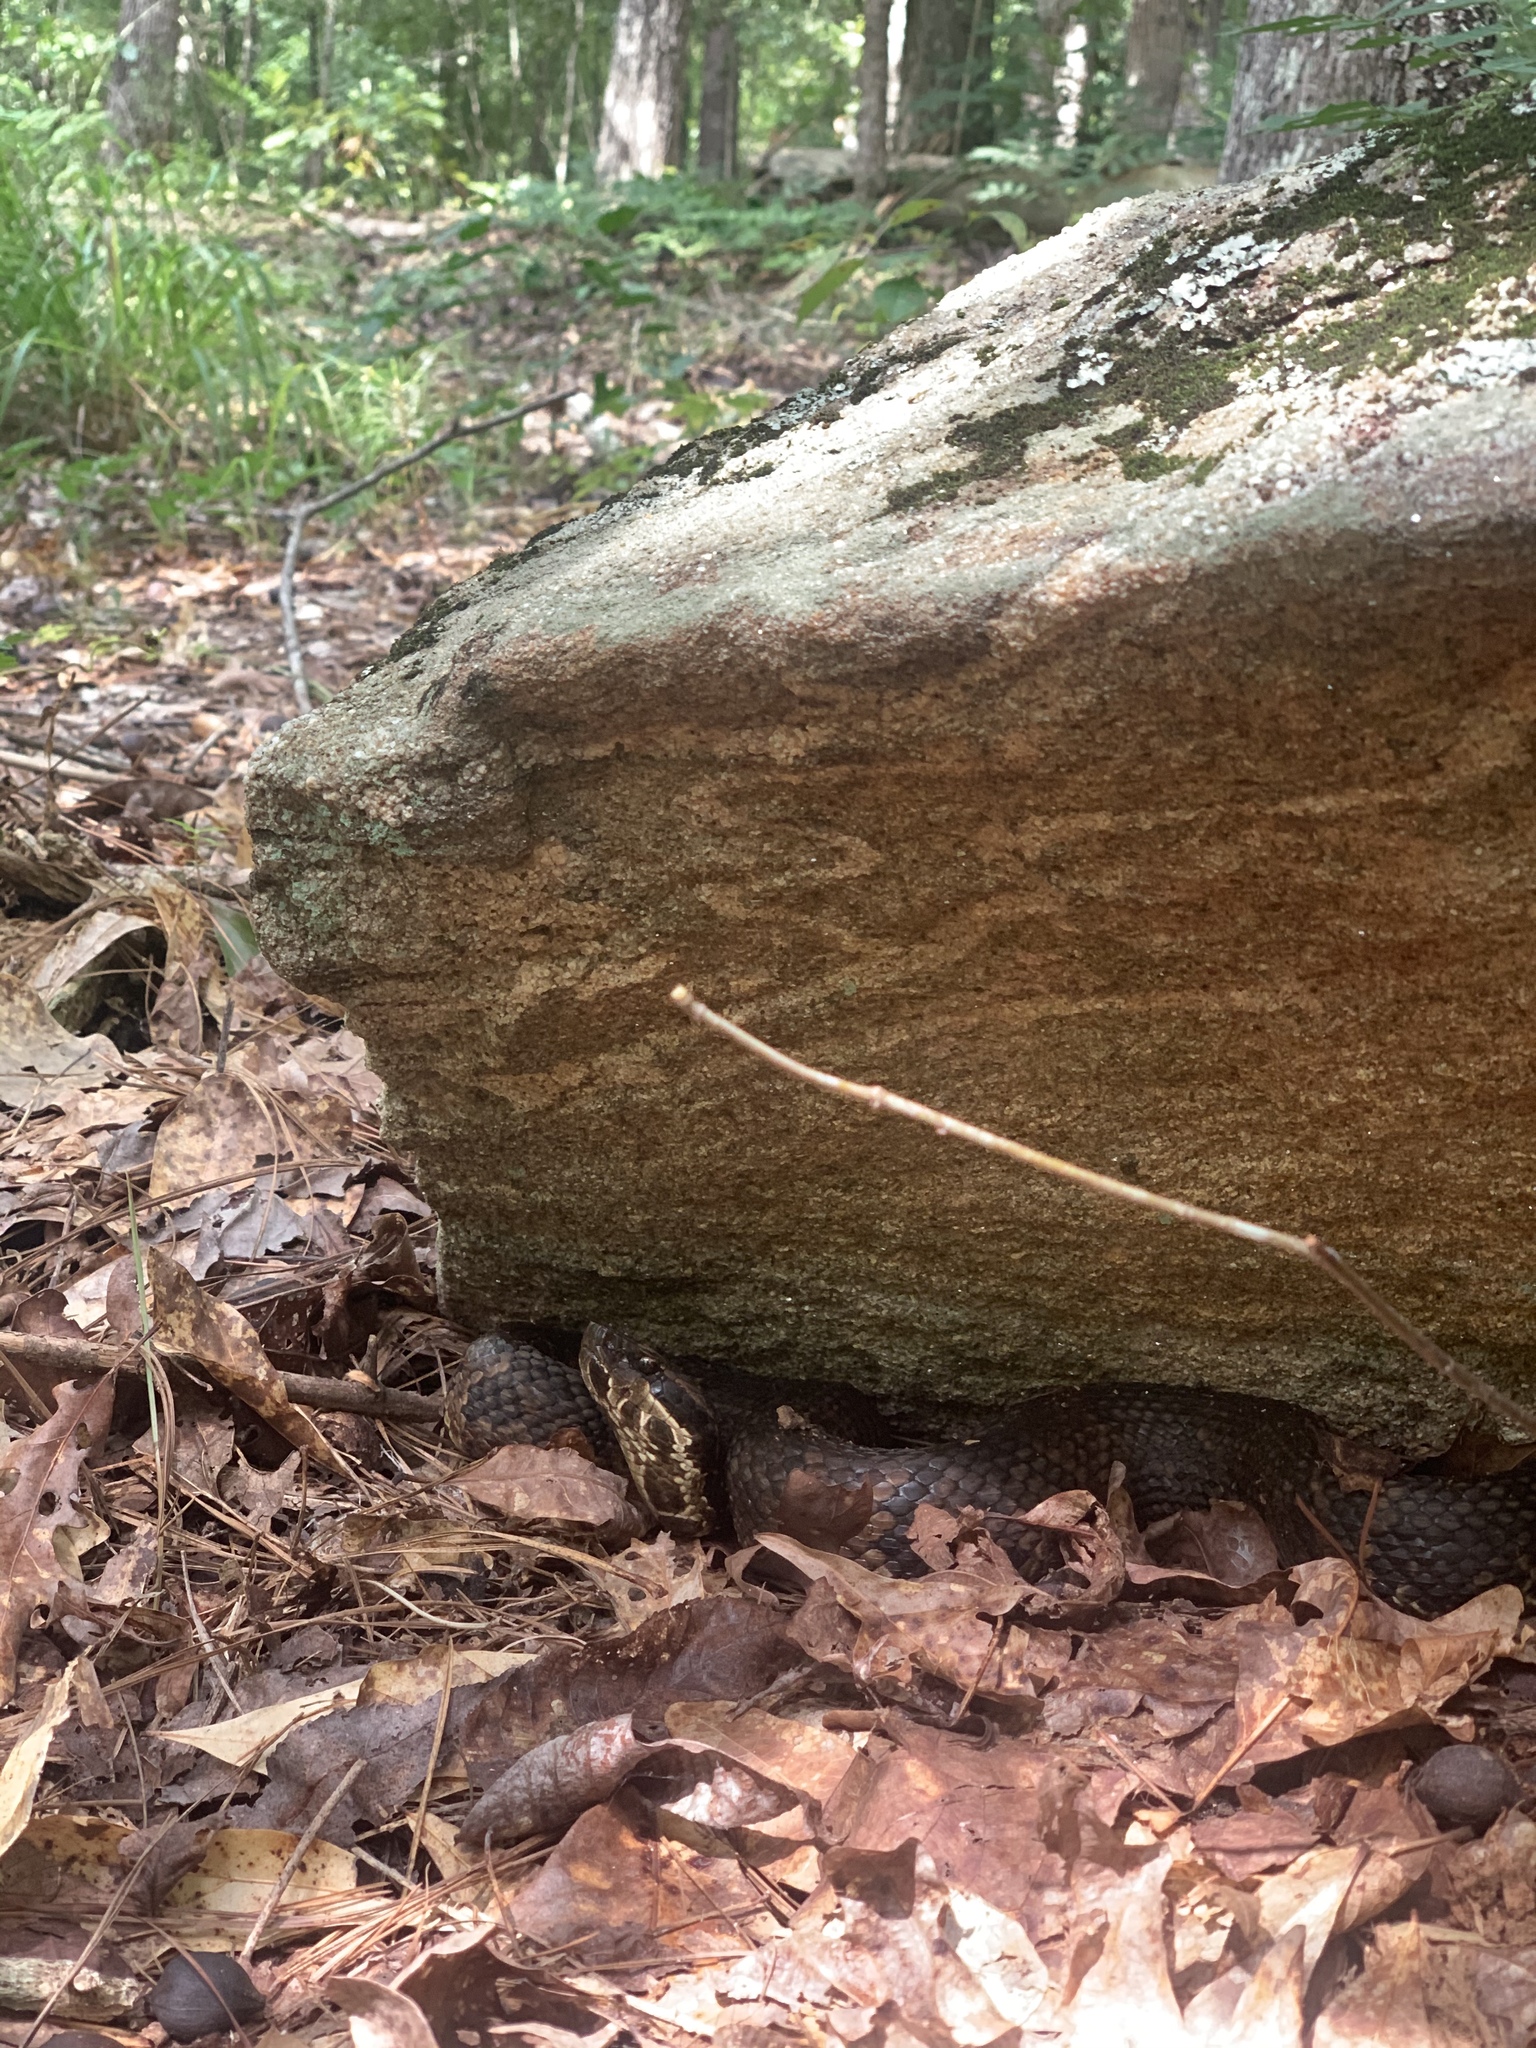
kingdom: Animalia
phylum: Chordata
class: Squamata
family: Viperidae
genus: Agkistrodon
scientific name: Agkistrodon piscivorus
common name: Cottonmouth
